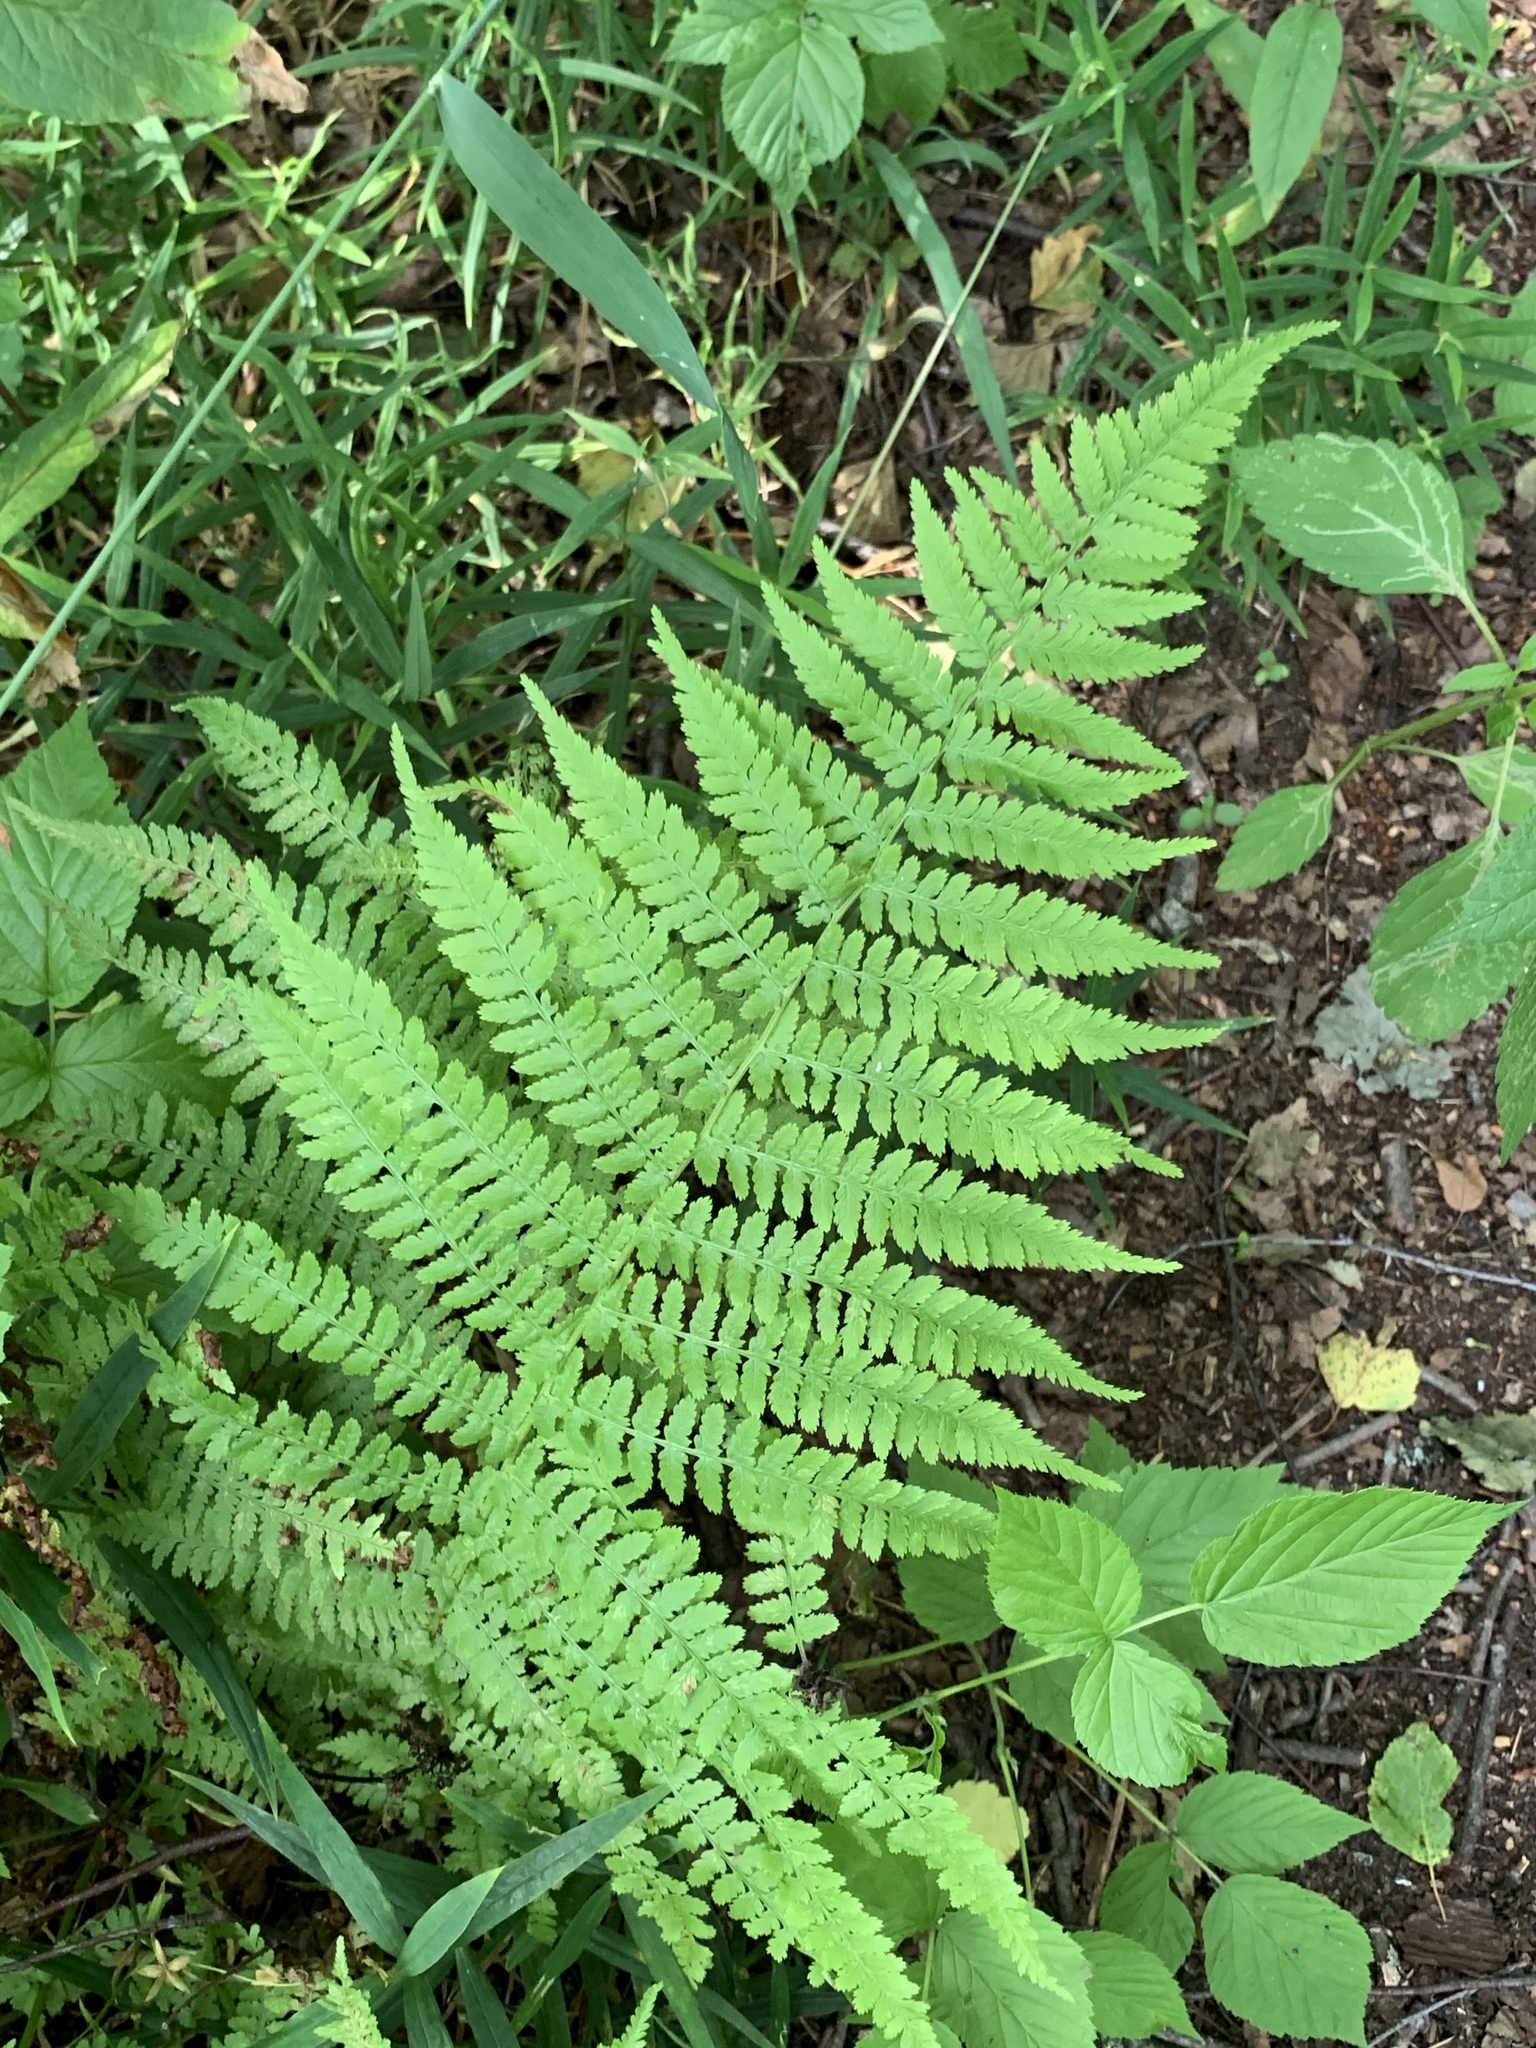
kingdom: Plantae
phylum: Tracheophyta
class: Polypodiopsida
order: Polypodiales
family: Athyriaceae
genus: Athyrium
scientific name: Athyrium filix-femina
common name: Lady fern
